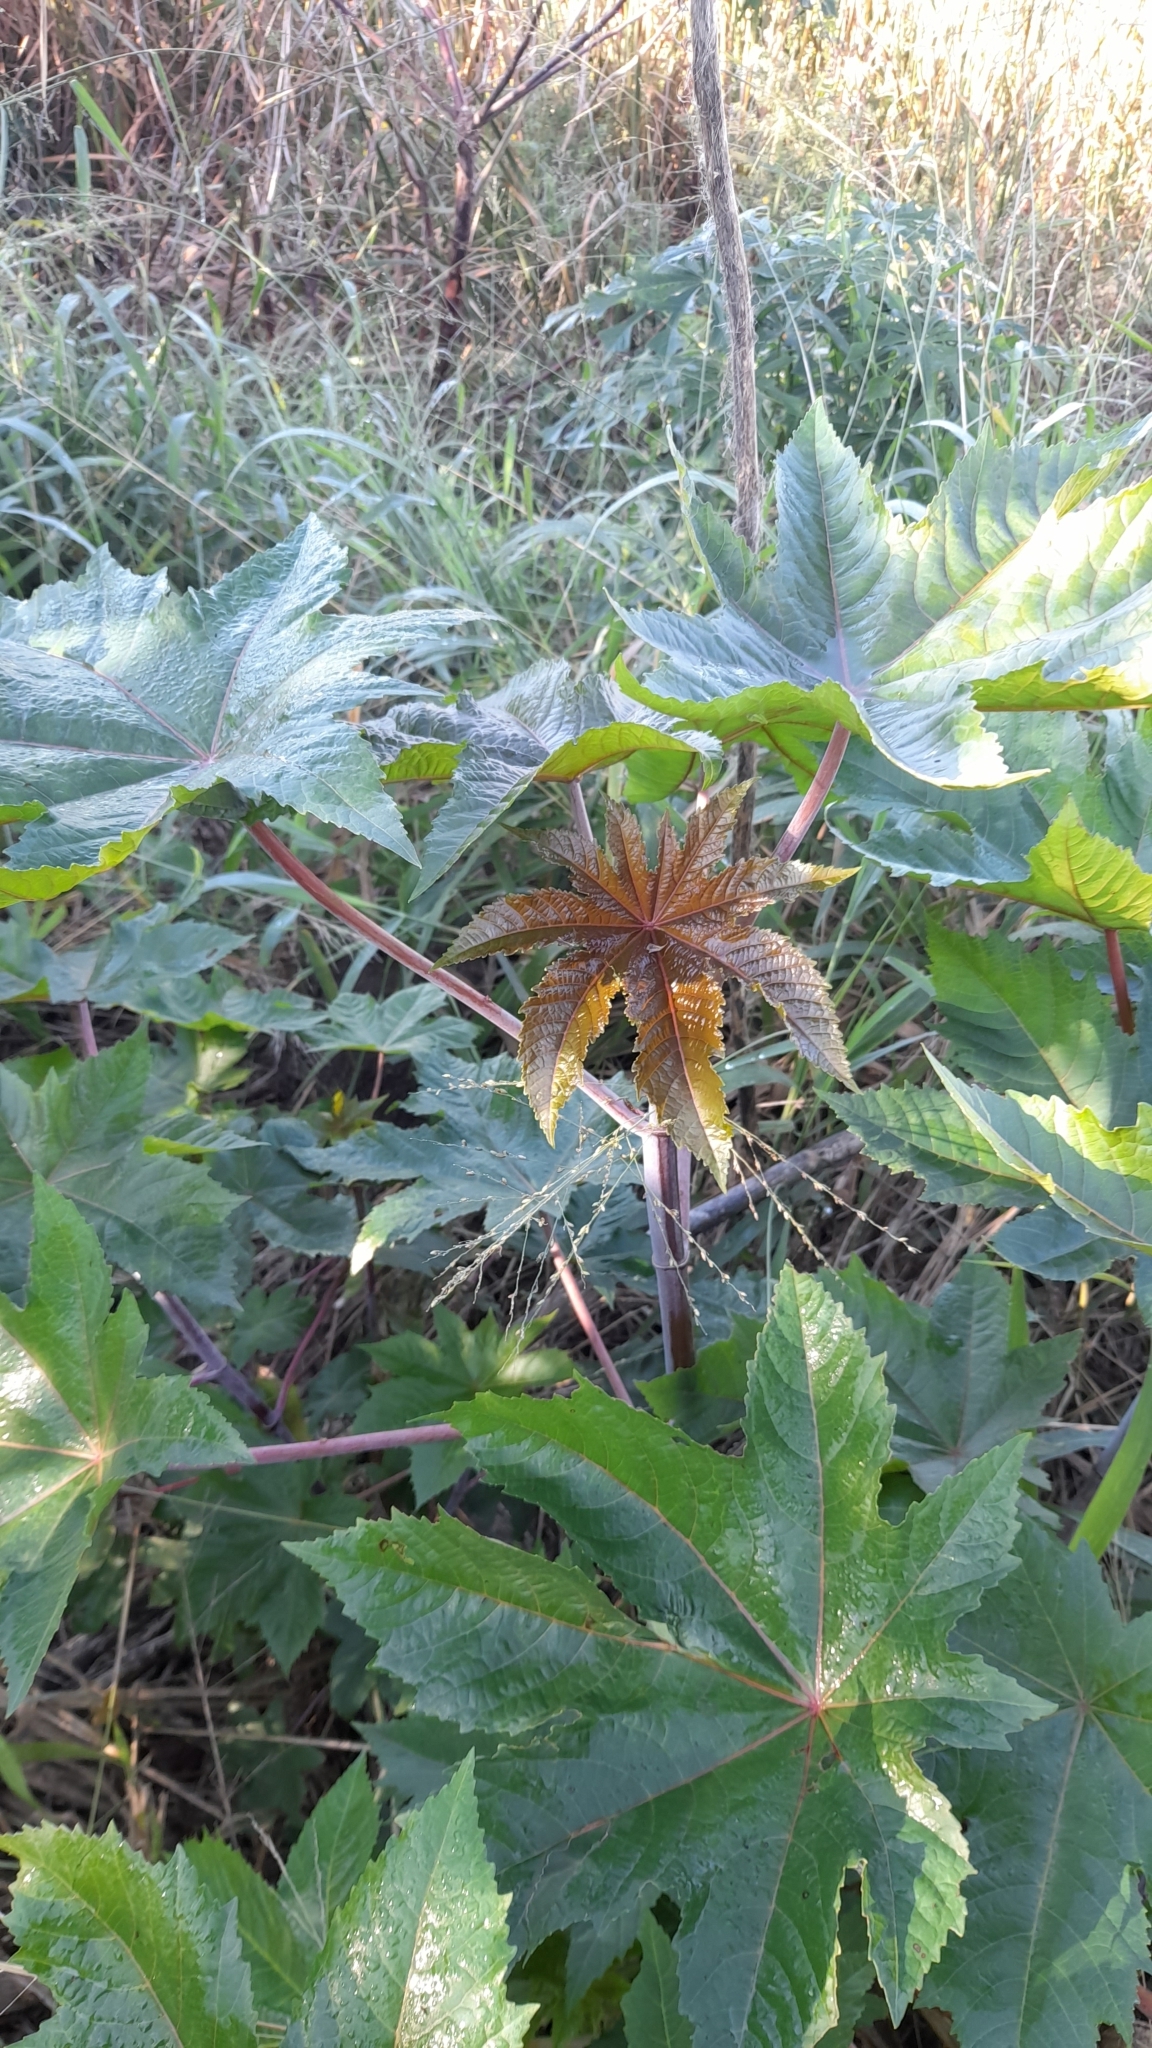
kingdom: Plantae
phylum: Tracheophyta
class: Magnoliopsida
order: Malpighiales
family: Euphorbiaceae
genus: Ricinus
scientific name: Ricinus communis
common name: Castor-oil-plant
